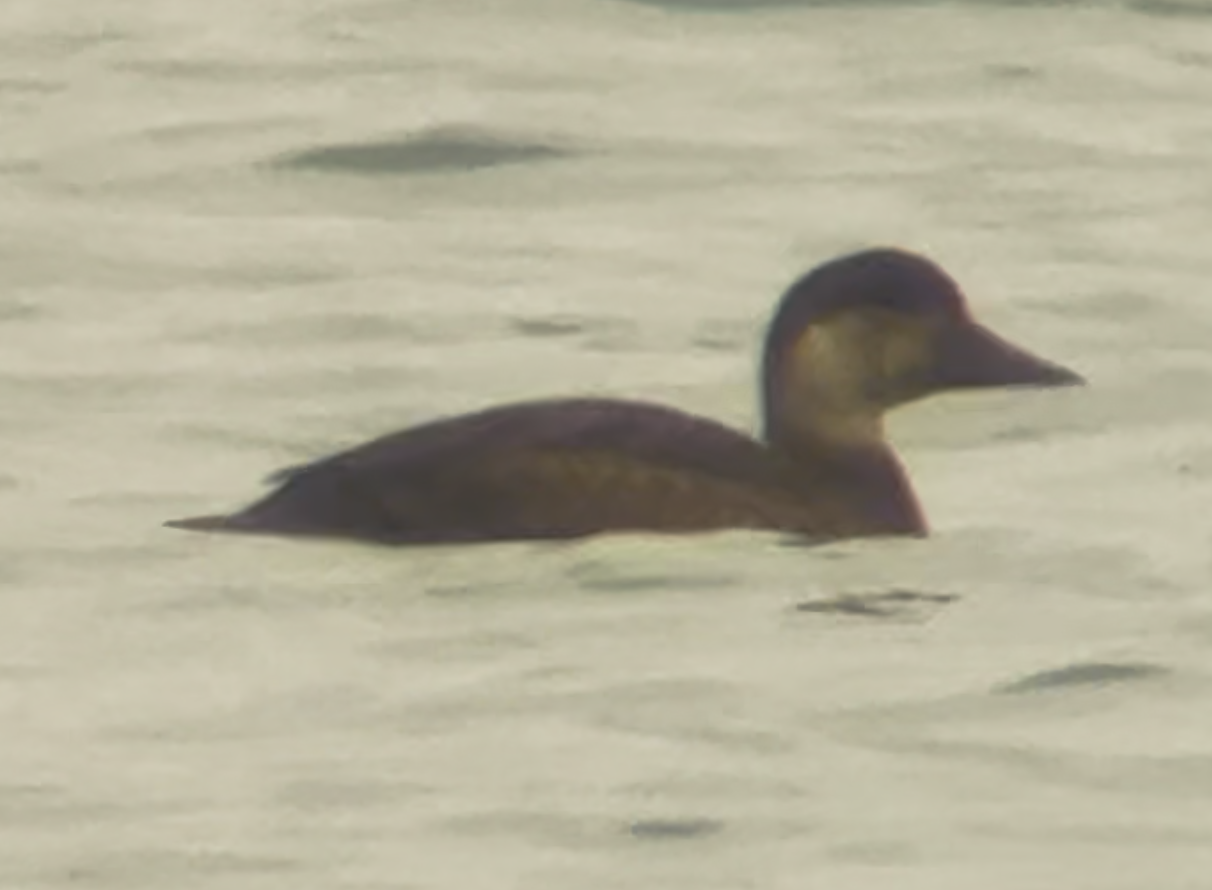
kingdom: Animalia
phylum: Chordata
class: Aves
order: Anseriformes
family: Anatidae
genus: Melanitta
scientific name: Melanitta nigra
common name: Common scoter
